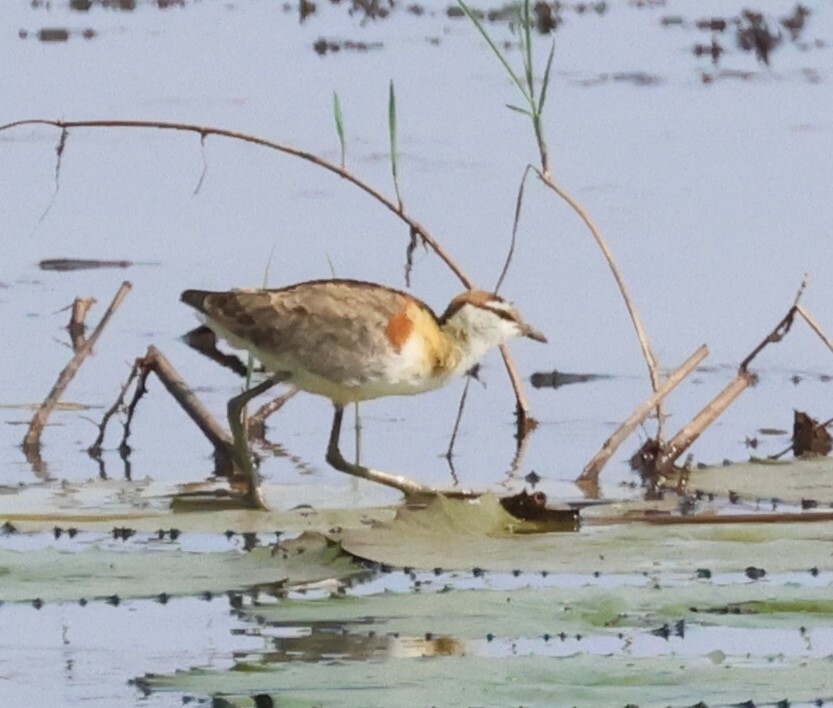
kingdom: Animalia
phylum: Chordata
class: Aves
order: Charadriiformes
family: Jacanidae
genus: Microparra
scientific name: Microparra capensis
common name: Lesser jacana
